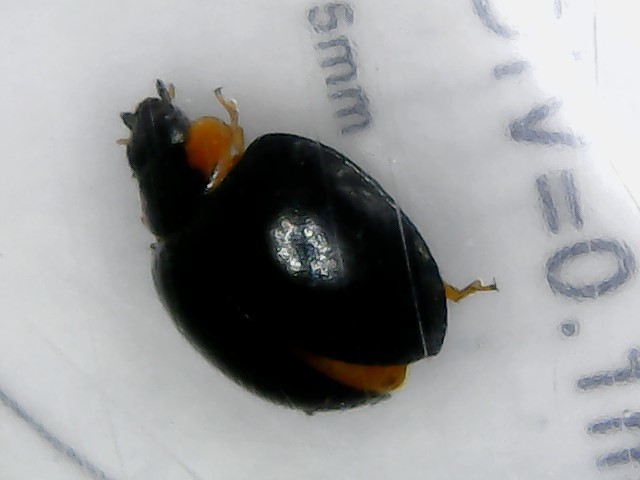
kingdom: Animalia
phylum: Arthropoda
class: Insecta
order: Coleoptera
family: Coccinellidae
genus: Parexochomus
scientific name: Parexochomus nigromaculatus
